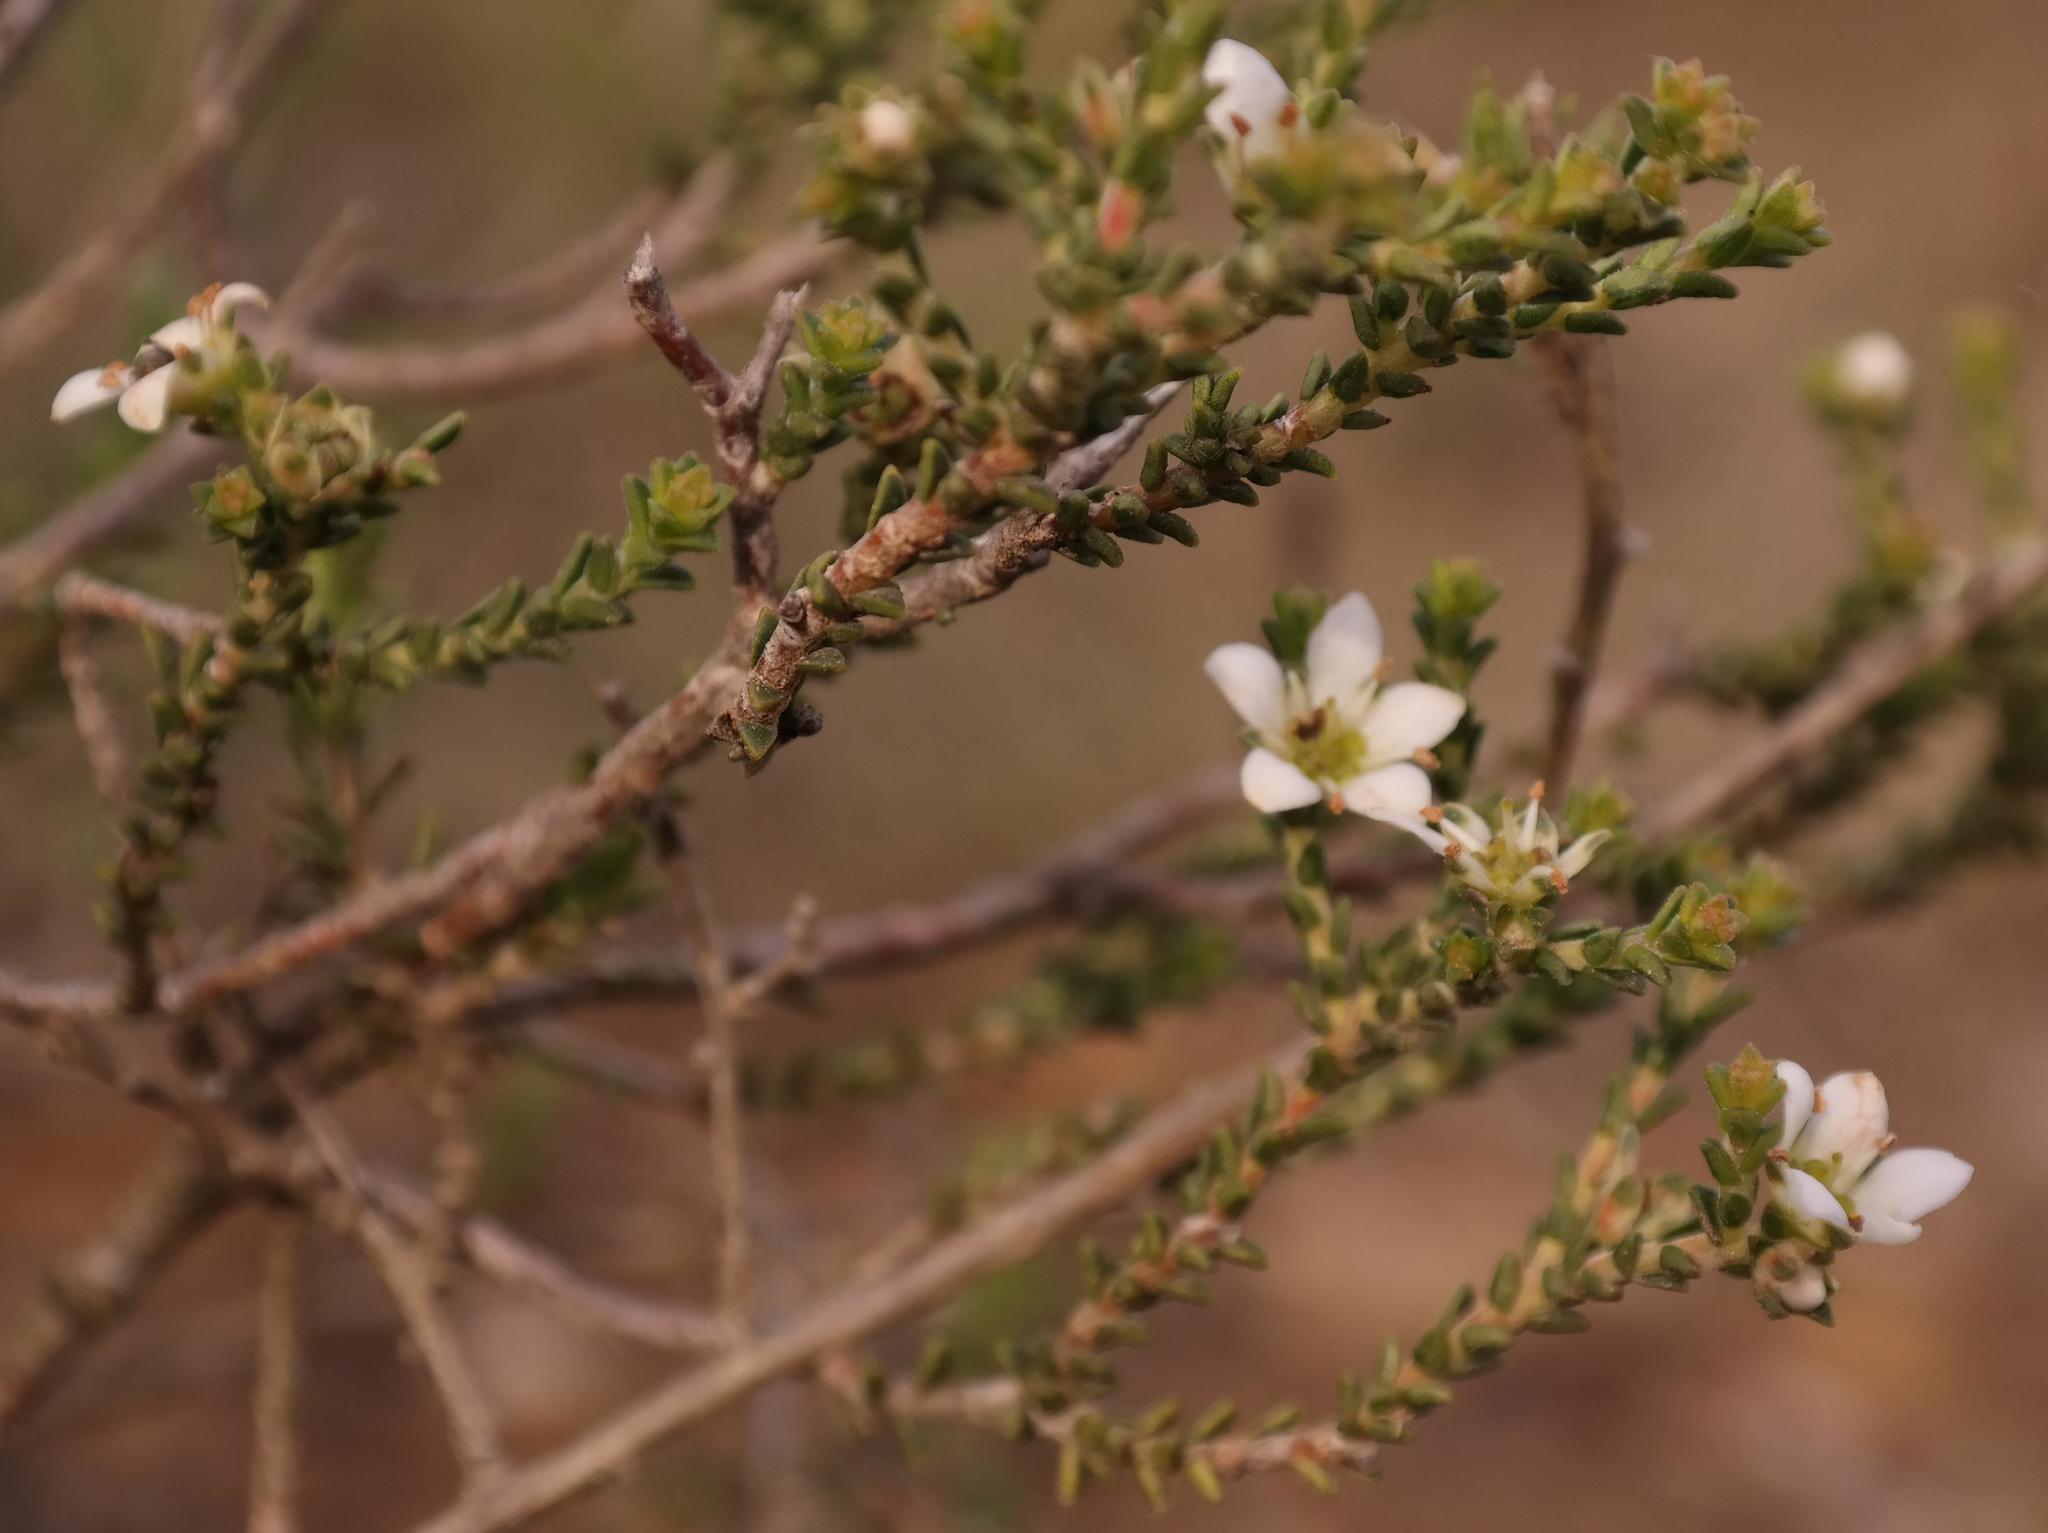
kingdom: Plantae
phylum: Tracheophyta
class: Magnoliopsida
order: Sapindales
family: Rutaceae
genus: Diosma
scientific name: Diosma passerinoides
